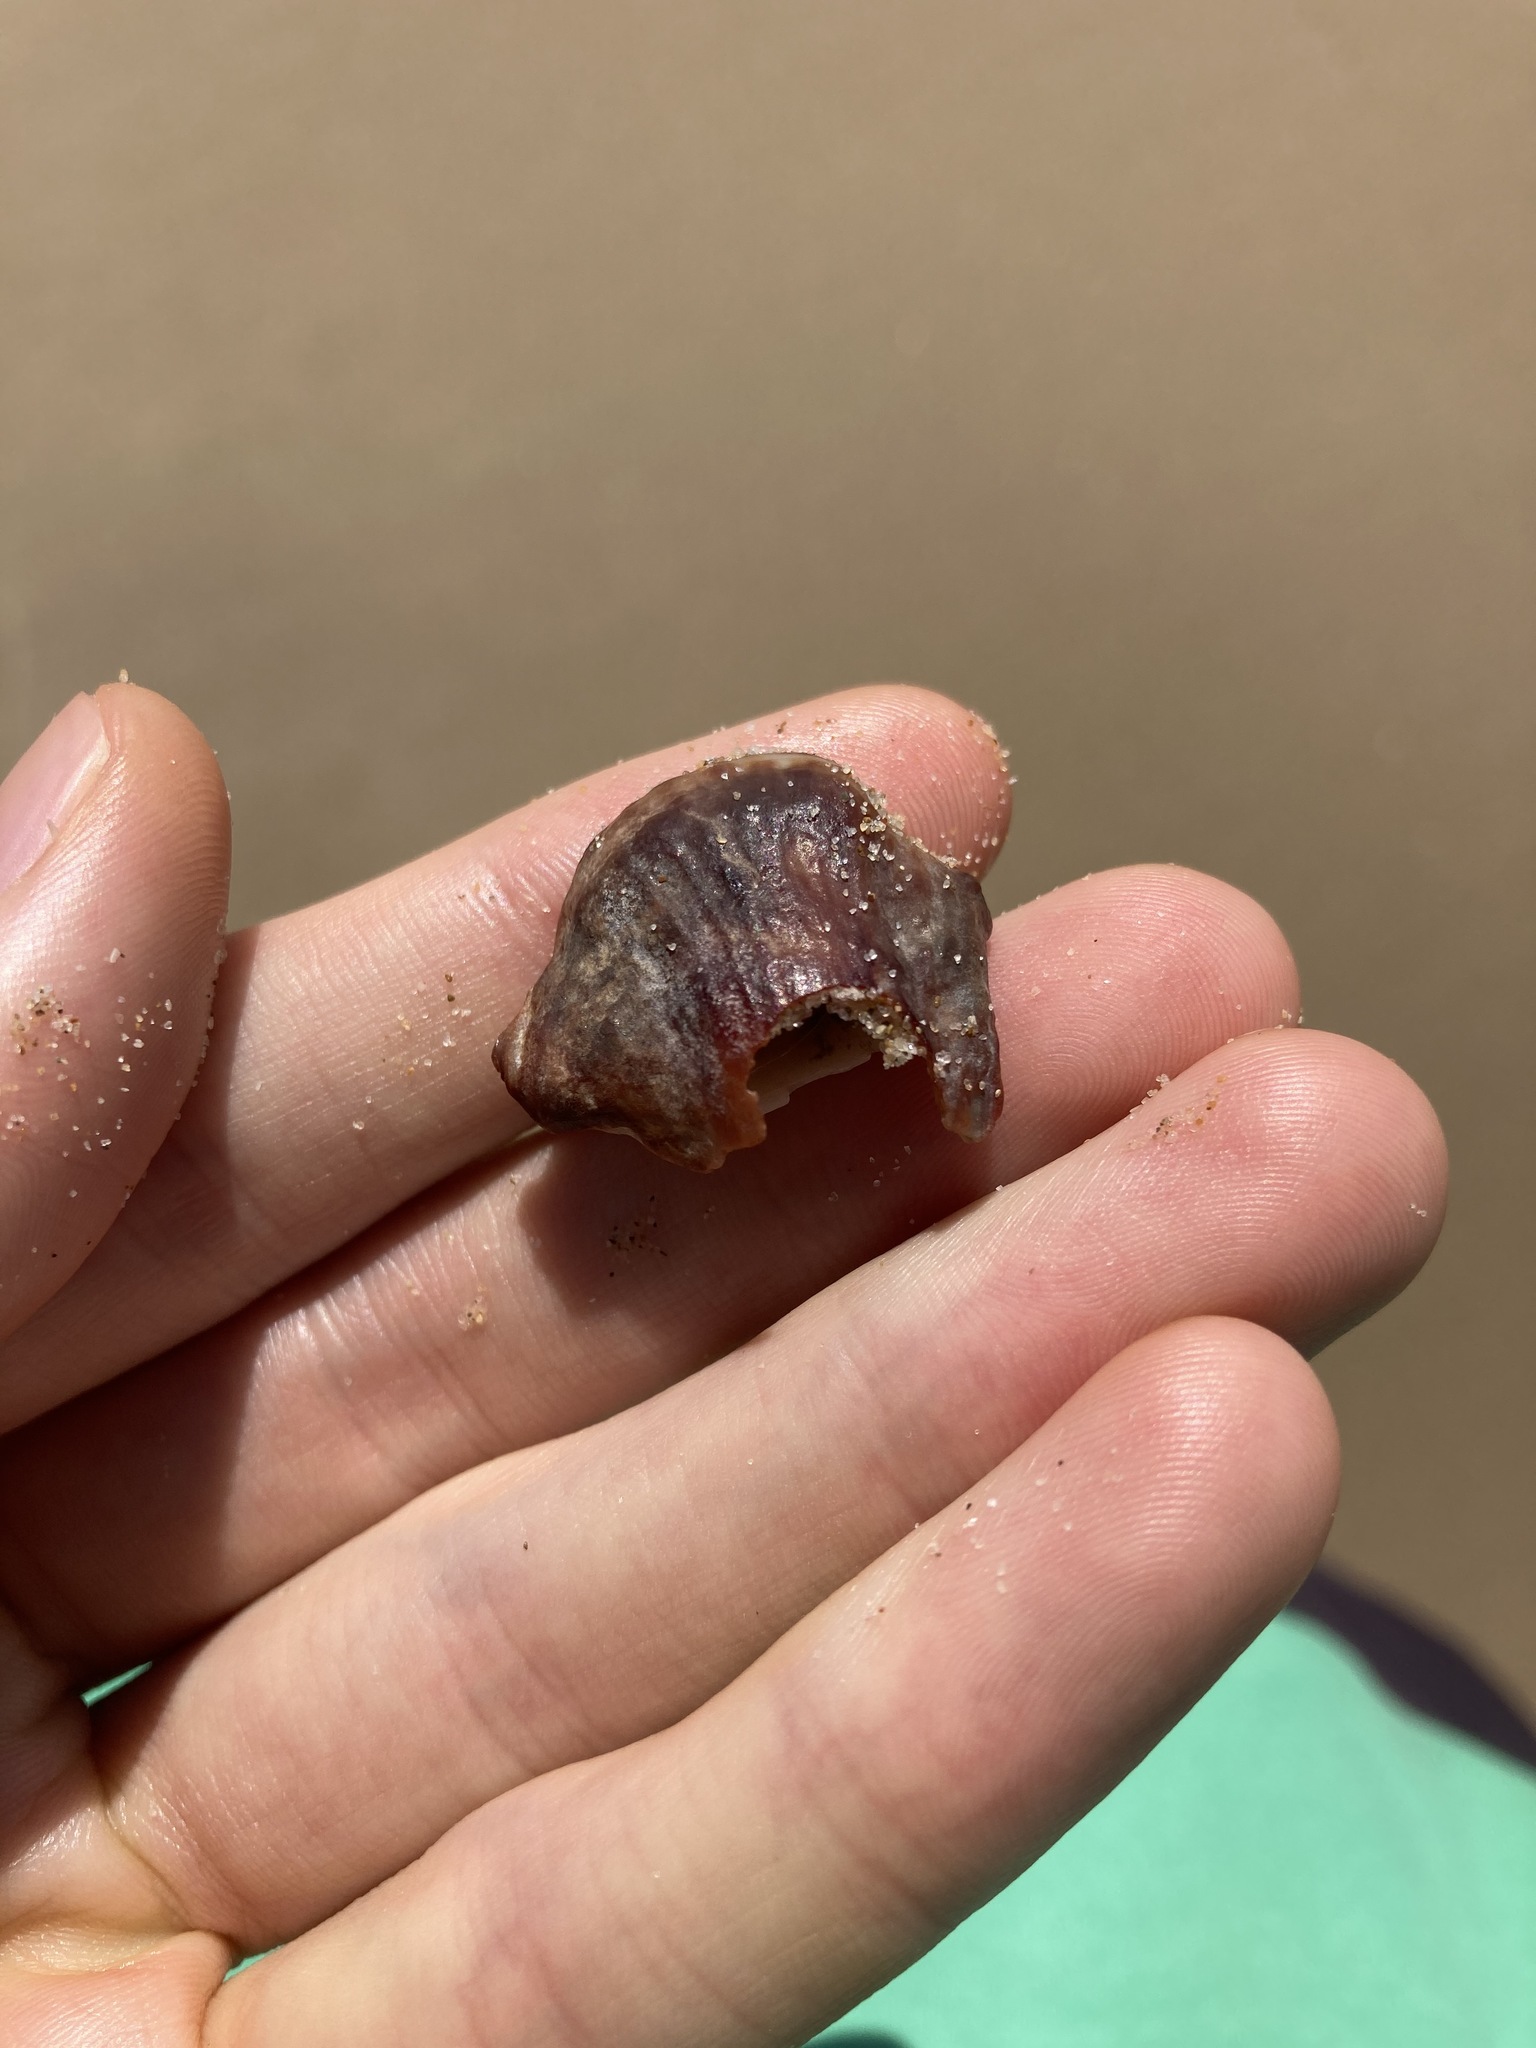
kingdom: Animalia
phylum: Mollusca
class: Gastropoda
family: Batillariidae
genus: Pyrazus
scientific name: Pyrazus ebeninus
